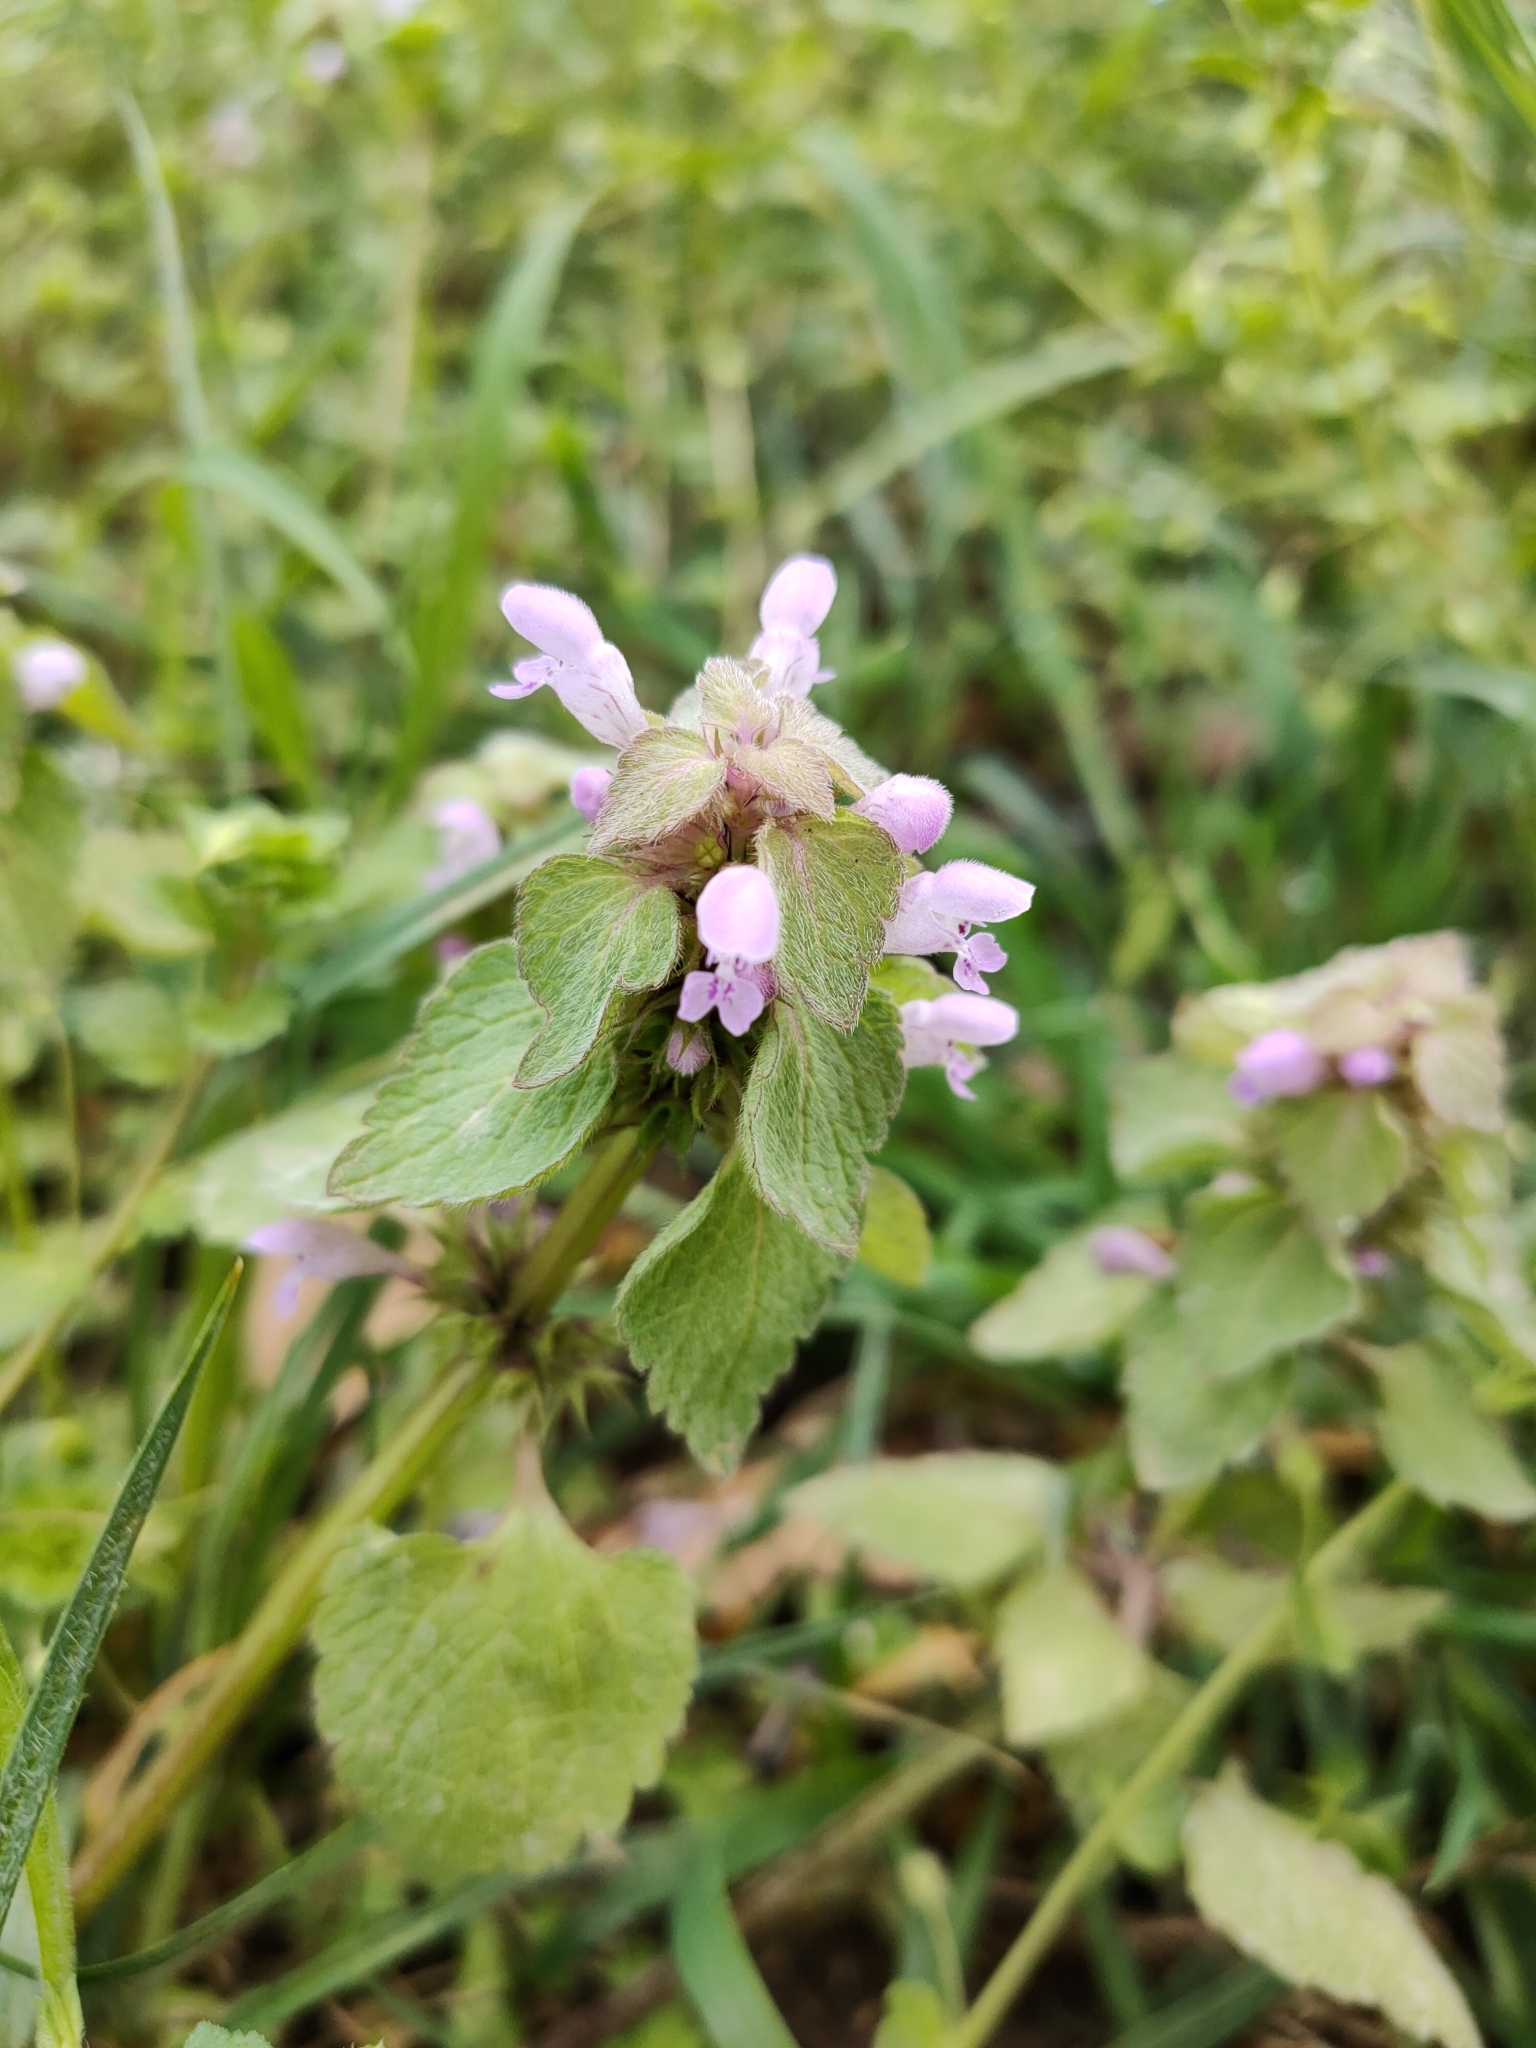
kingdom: Plantae
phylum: Tracheophyta
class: Magnoliopsida
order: Lamiales
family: Lamiaceae
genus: Lamium
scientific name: Lamium purpureum
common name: Red dead-nettle
